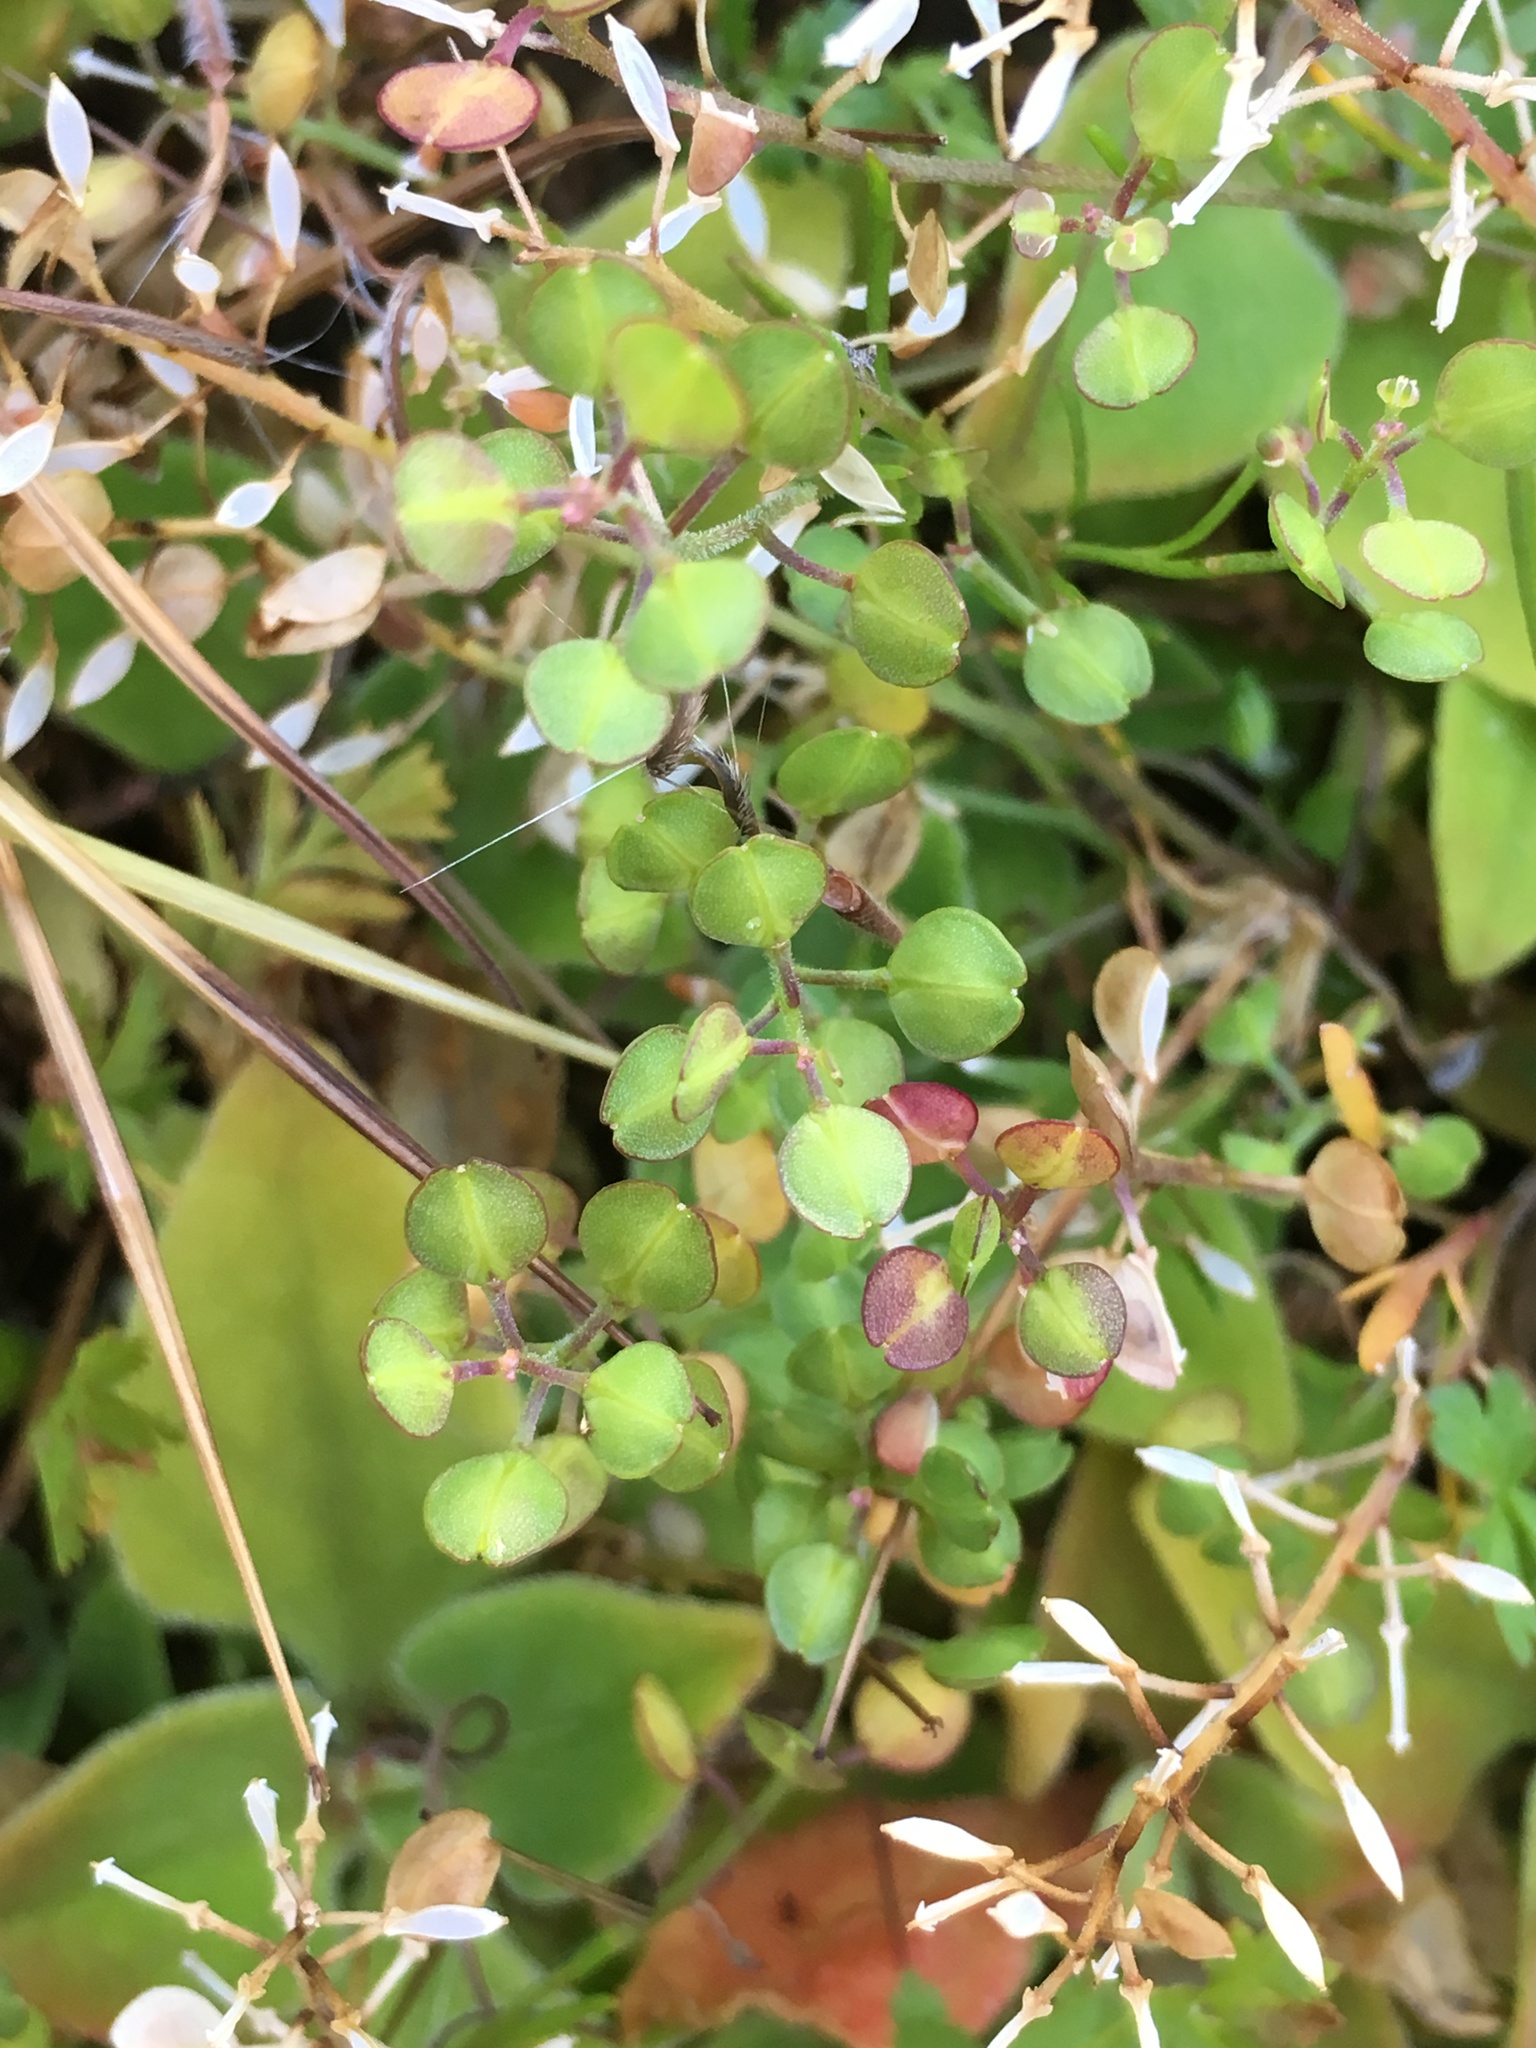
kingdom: Plantae
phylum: Tracheophyta
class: Magnoliopsida
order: Brassicales
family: Brassicaceae
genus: Lepidium
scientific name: Lepidium nitidum
